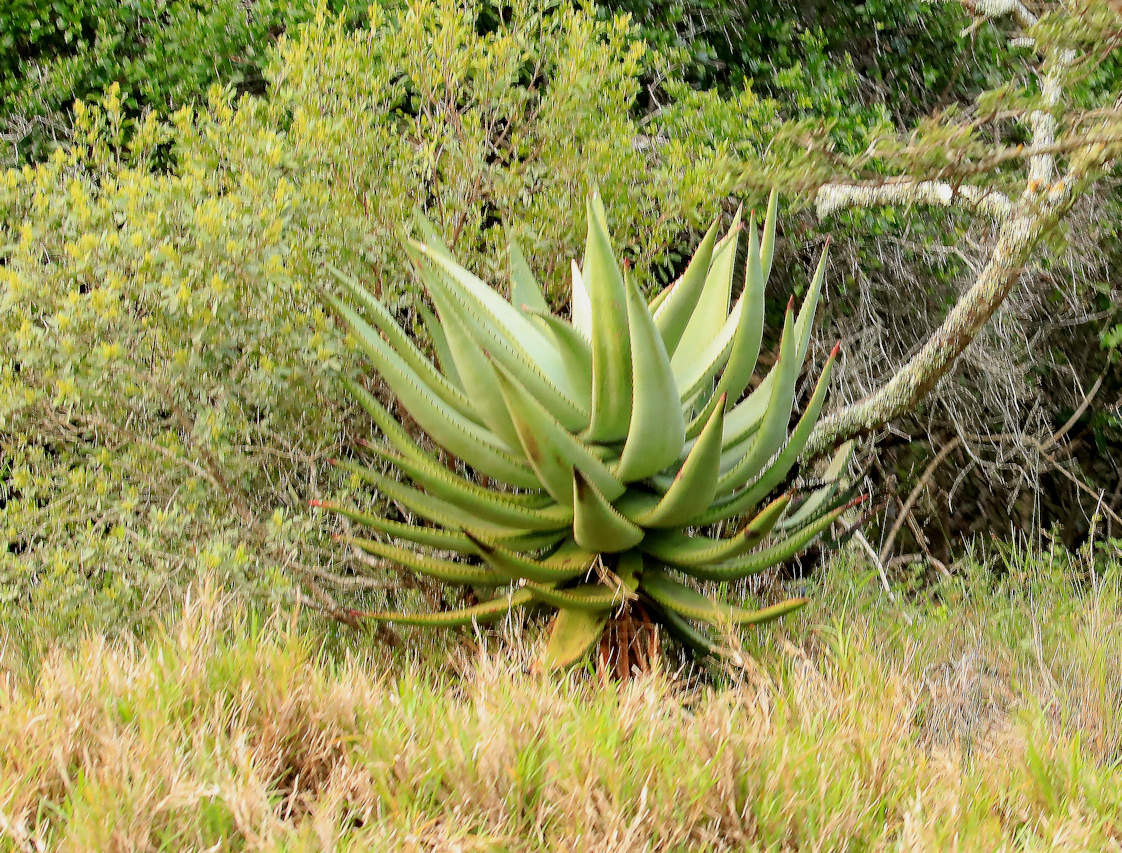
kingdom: Plantae
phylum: Tracheophyta
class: Liliopsida
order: Asparagales
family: Asphodelaceae
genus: Aloe
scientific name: Aloe ferox
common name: Bitter aloe
